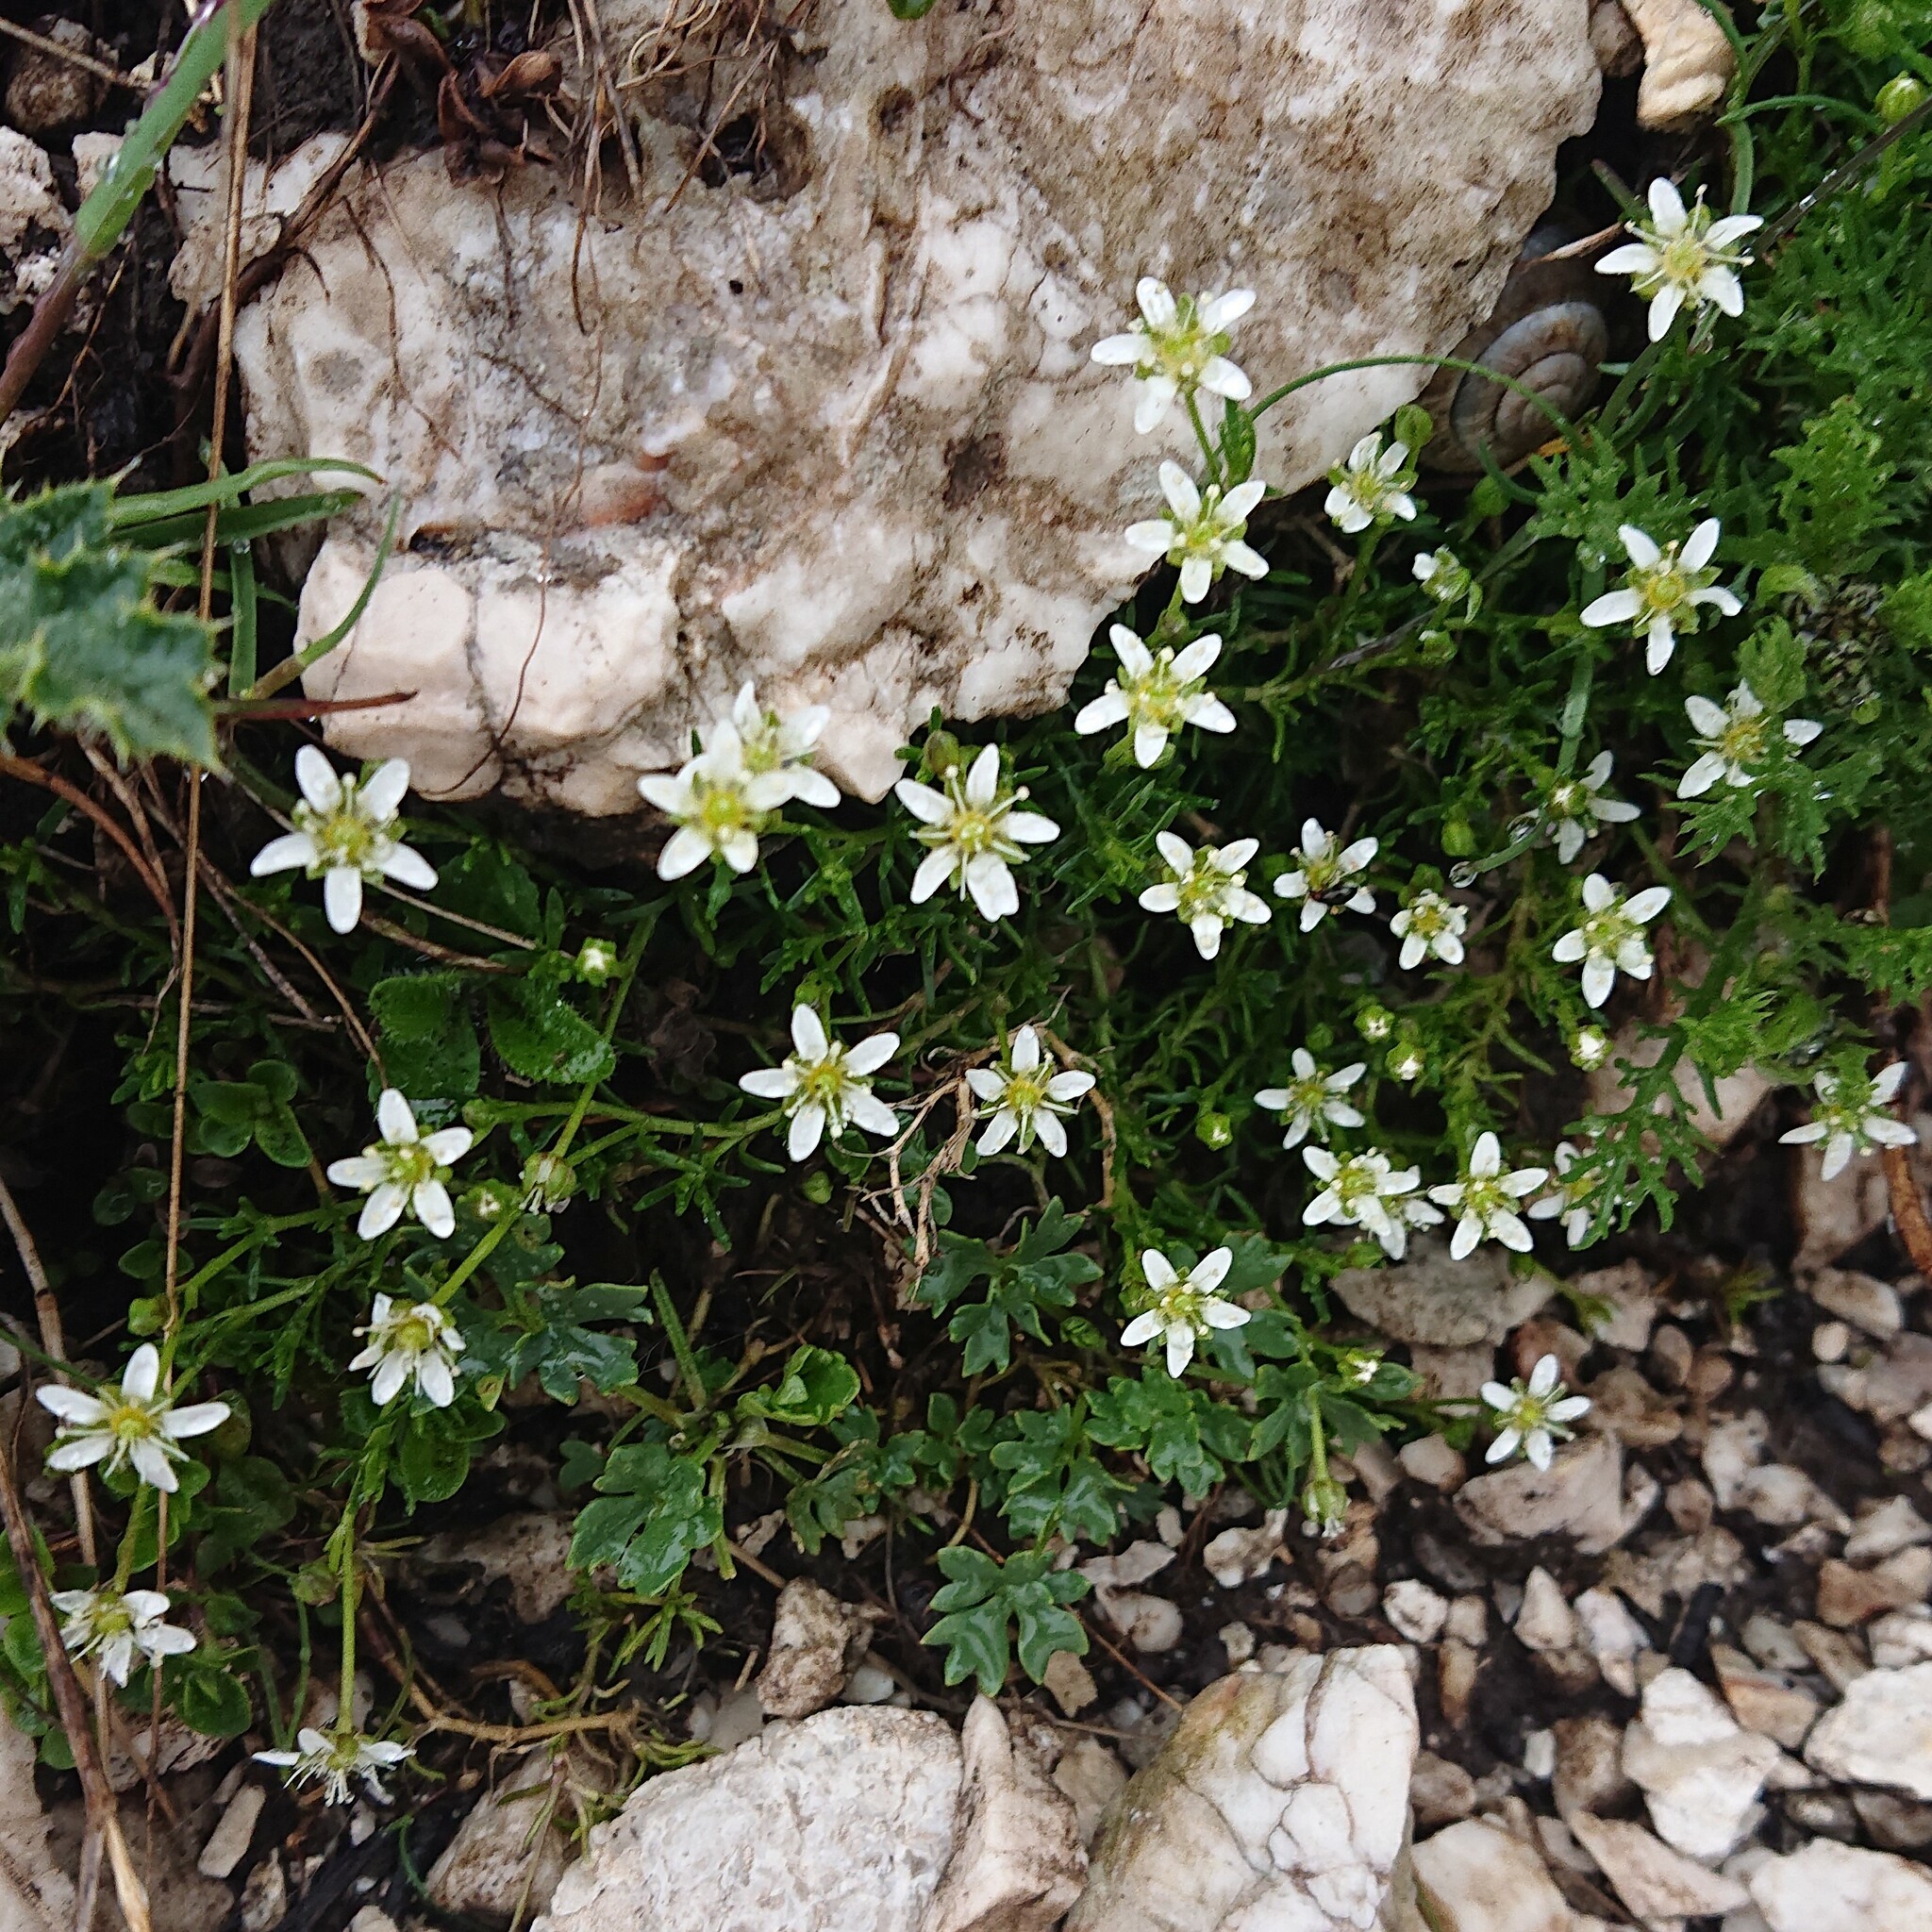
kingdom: Plantae
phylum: Tracheophyta
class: Magnoliopsida
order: Caryophyllales
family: Caryophyllaceae
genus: Moehringia
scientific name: Moehringia ciliata
